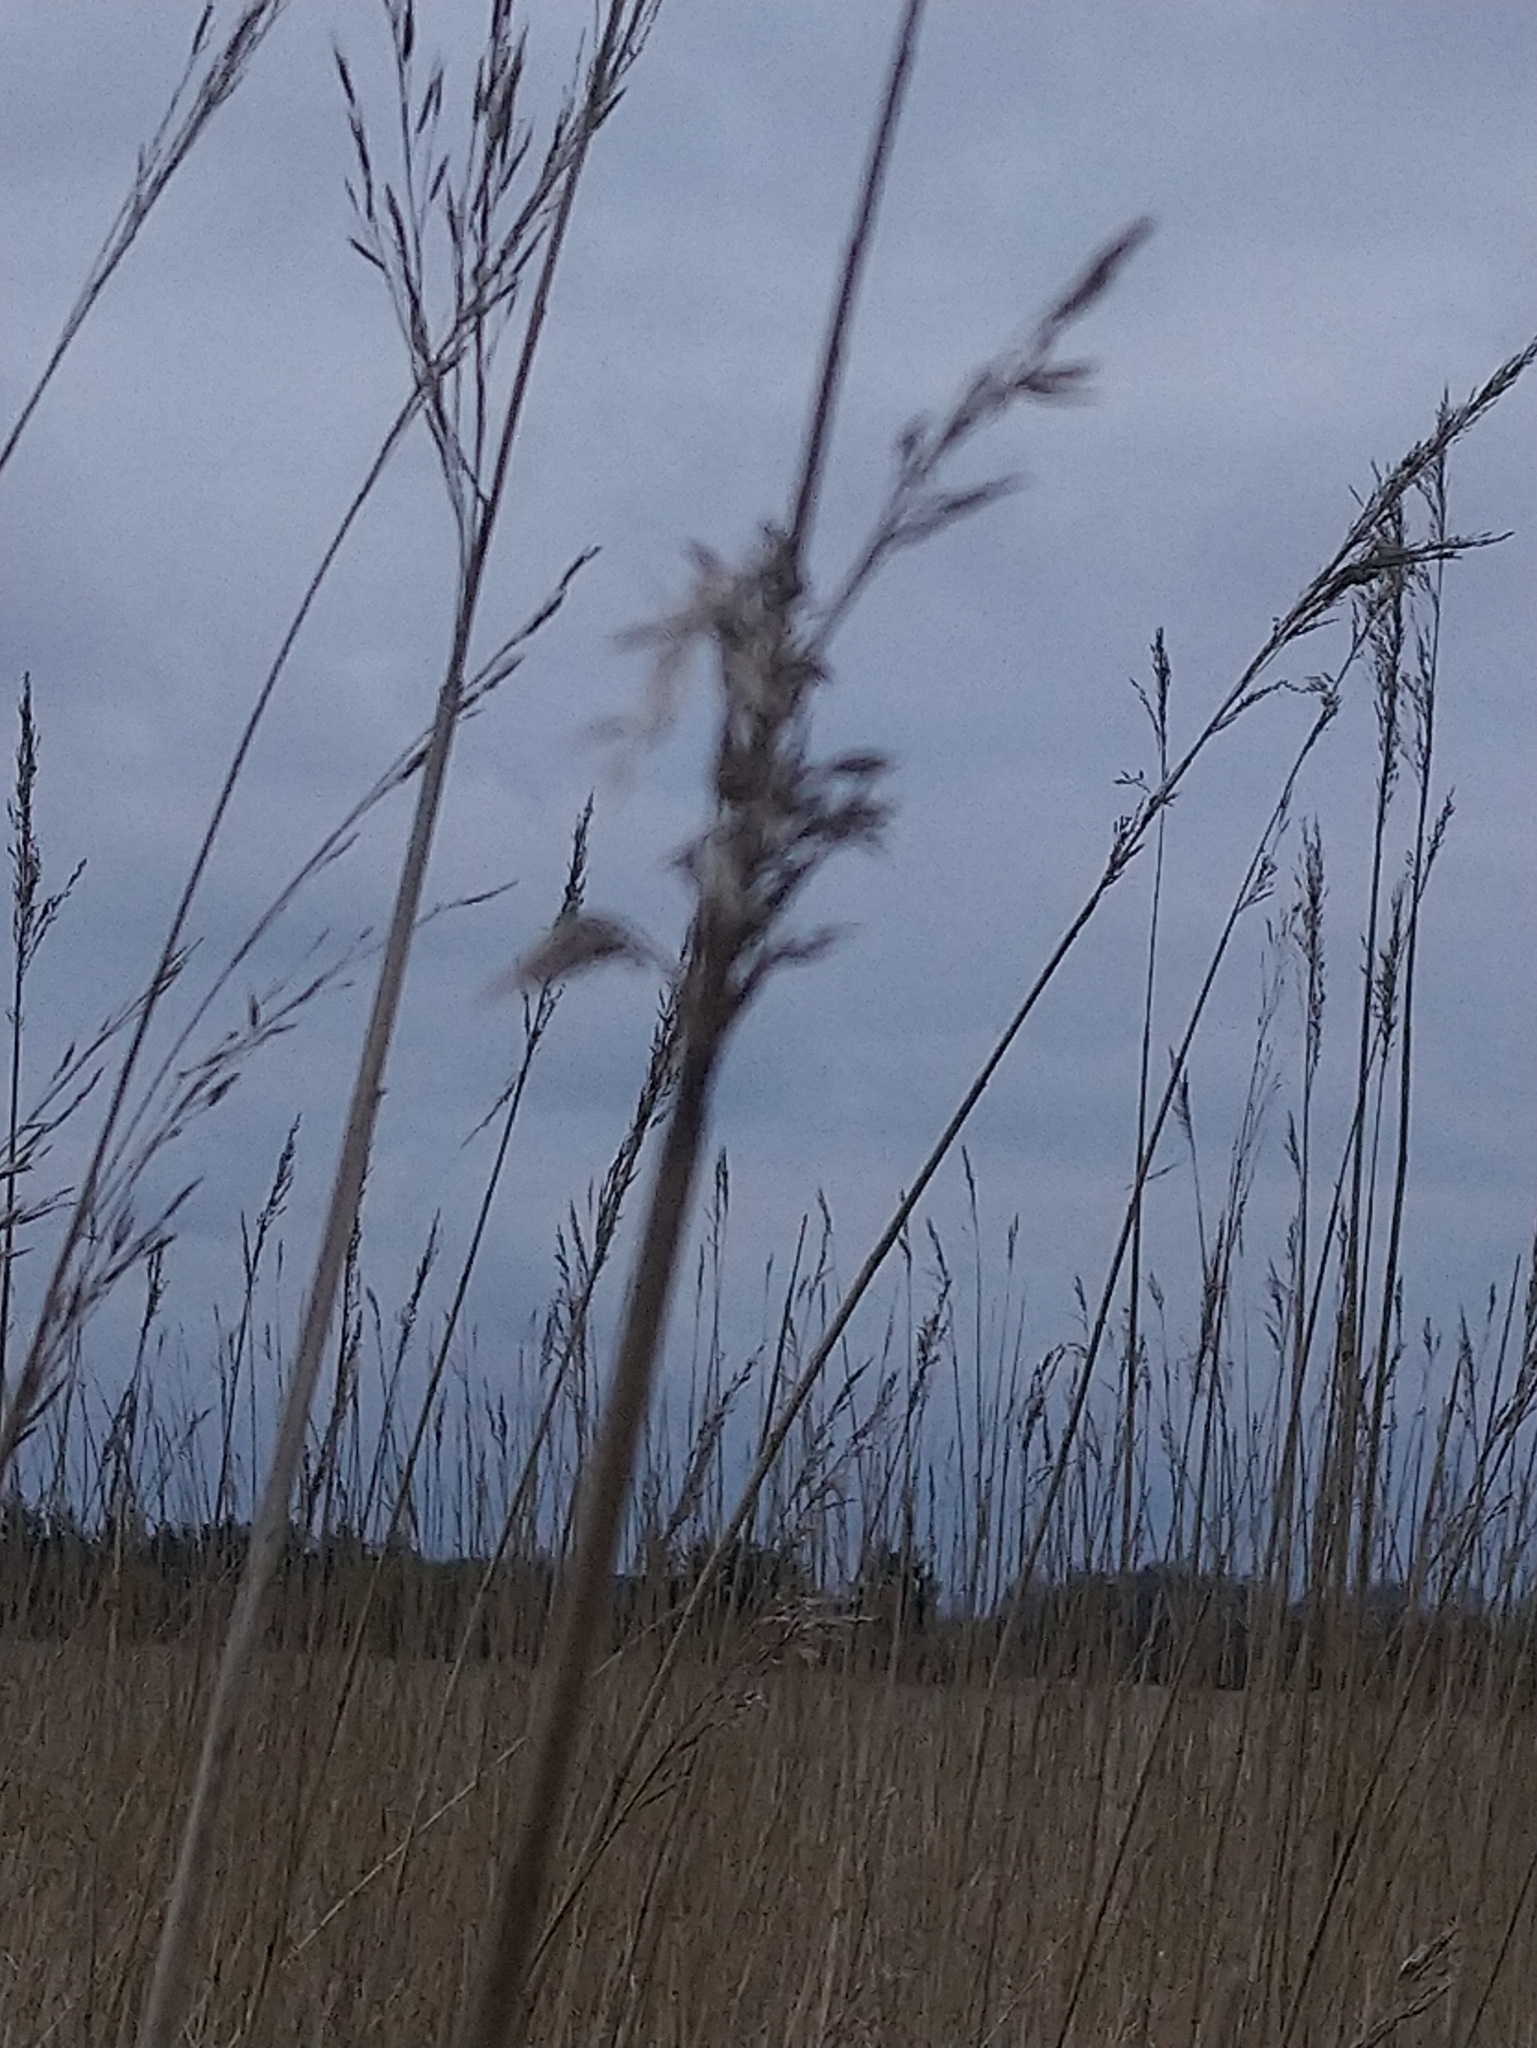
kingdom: Plantae
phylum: Tracheophyta
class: Liliopsida
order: Poales
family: Poaceae
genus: Phragmites
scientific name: Phragmites australis
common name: Common reed
